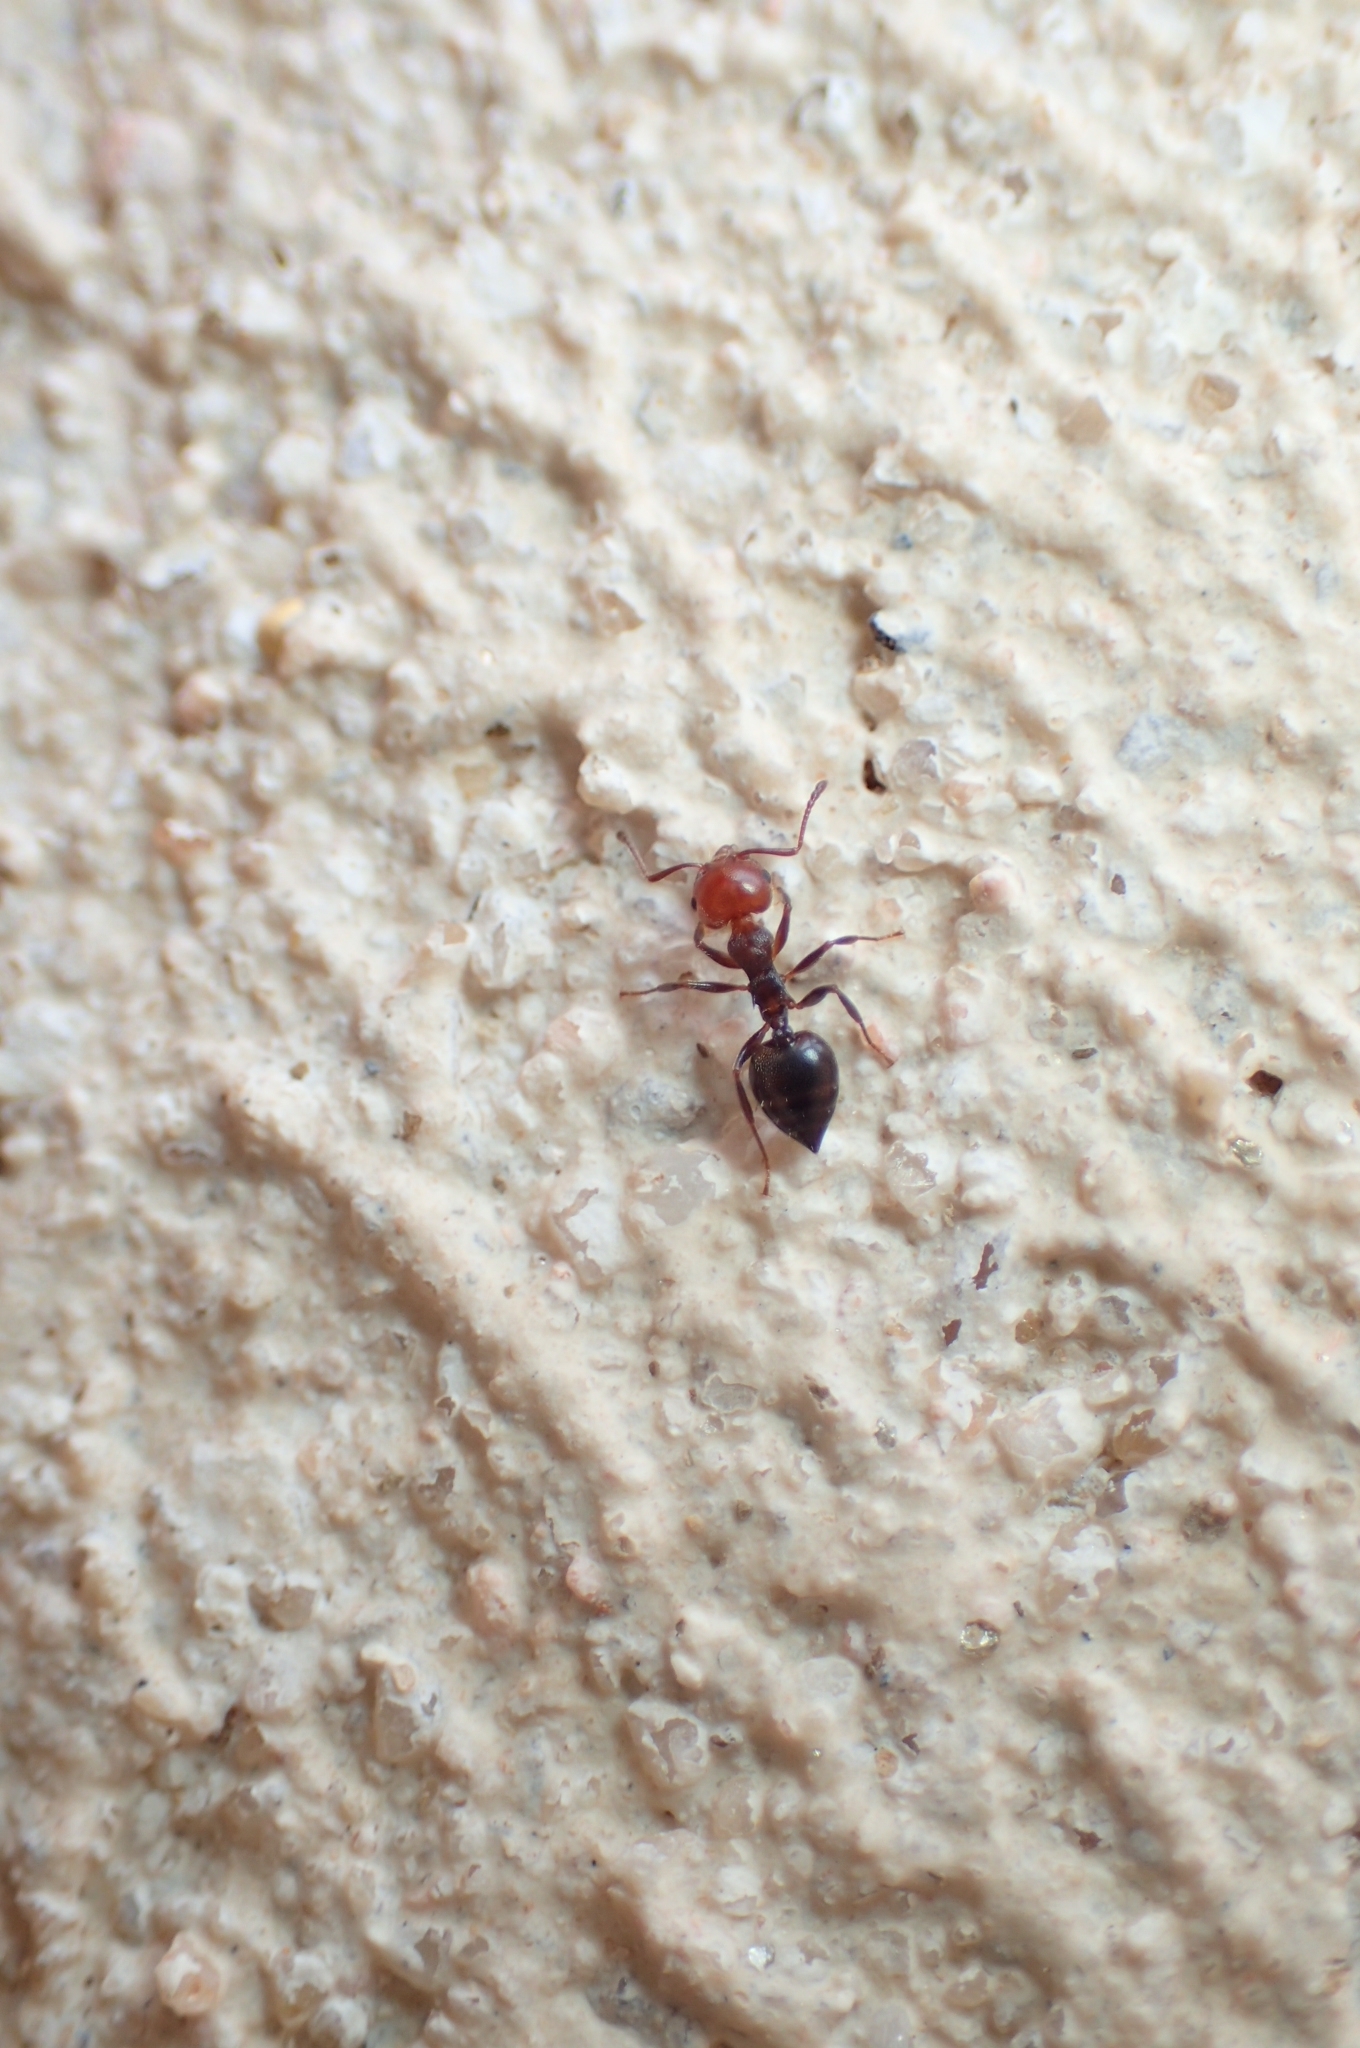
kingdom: Animalia
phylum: Arthropoda
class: Insecta
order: Hymenoptera
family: Formicidae
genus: Crematogaster
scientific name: Crematogaster scutellaris
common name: Fourmi du liège
